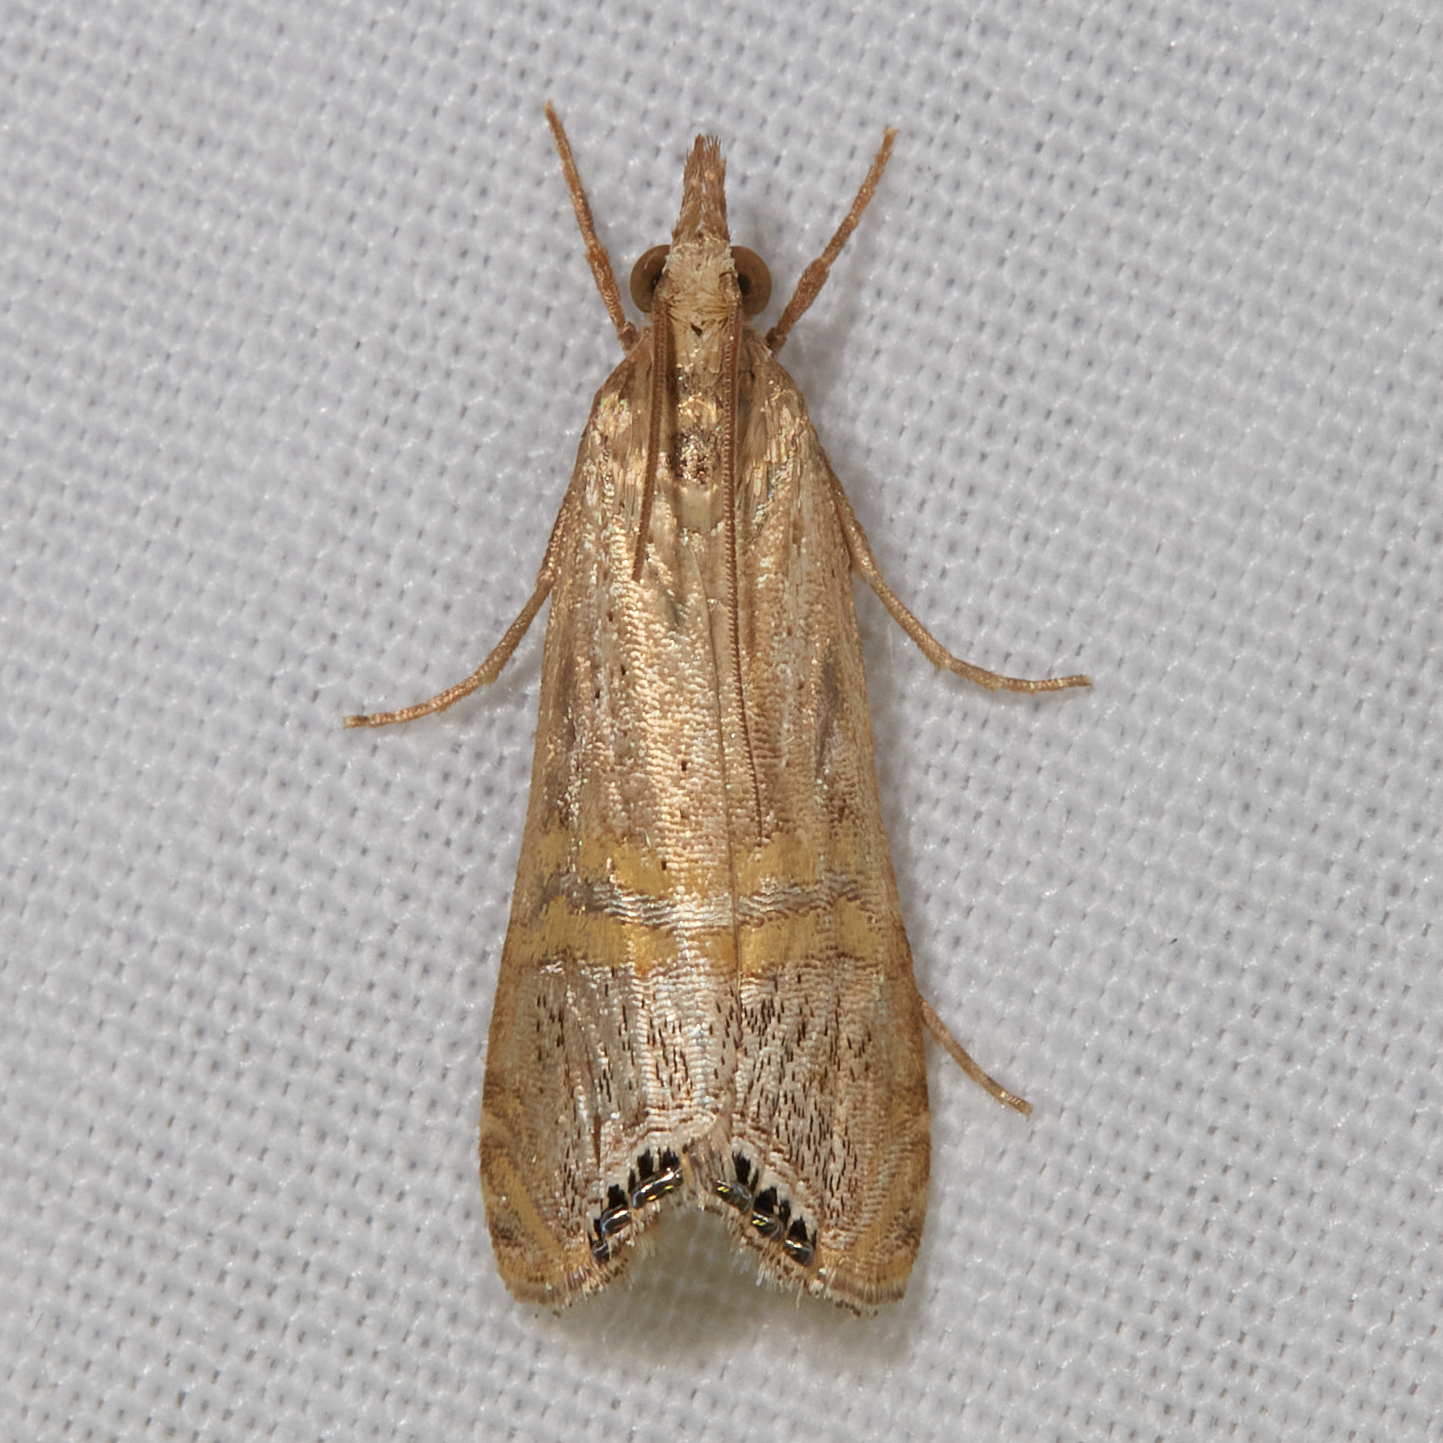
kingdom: Animalia
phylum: Arthropoda
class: Insecta
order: Lepidoptera
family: Crambidae
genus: Euchromius
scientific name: Euchromius ocellea
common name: Necklace veneer moth
